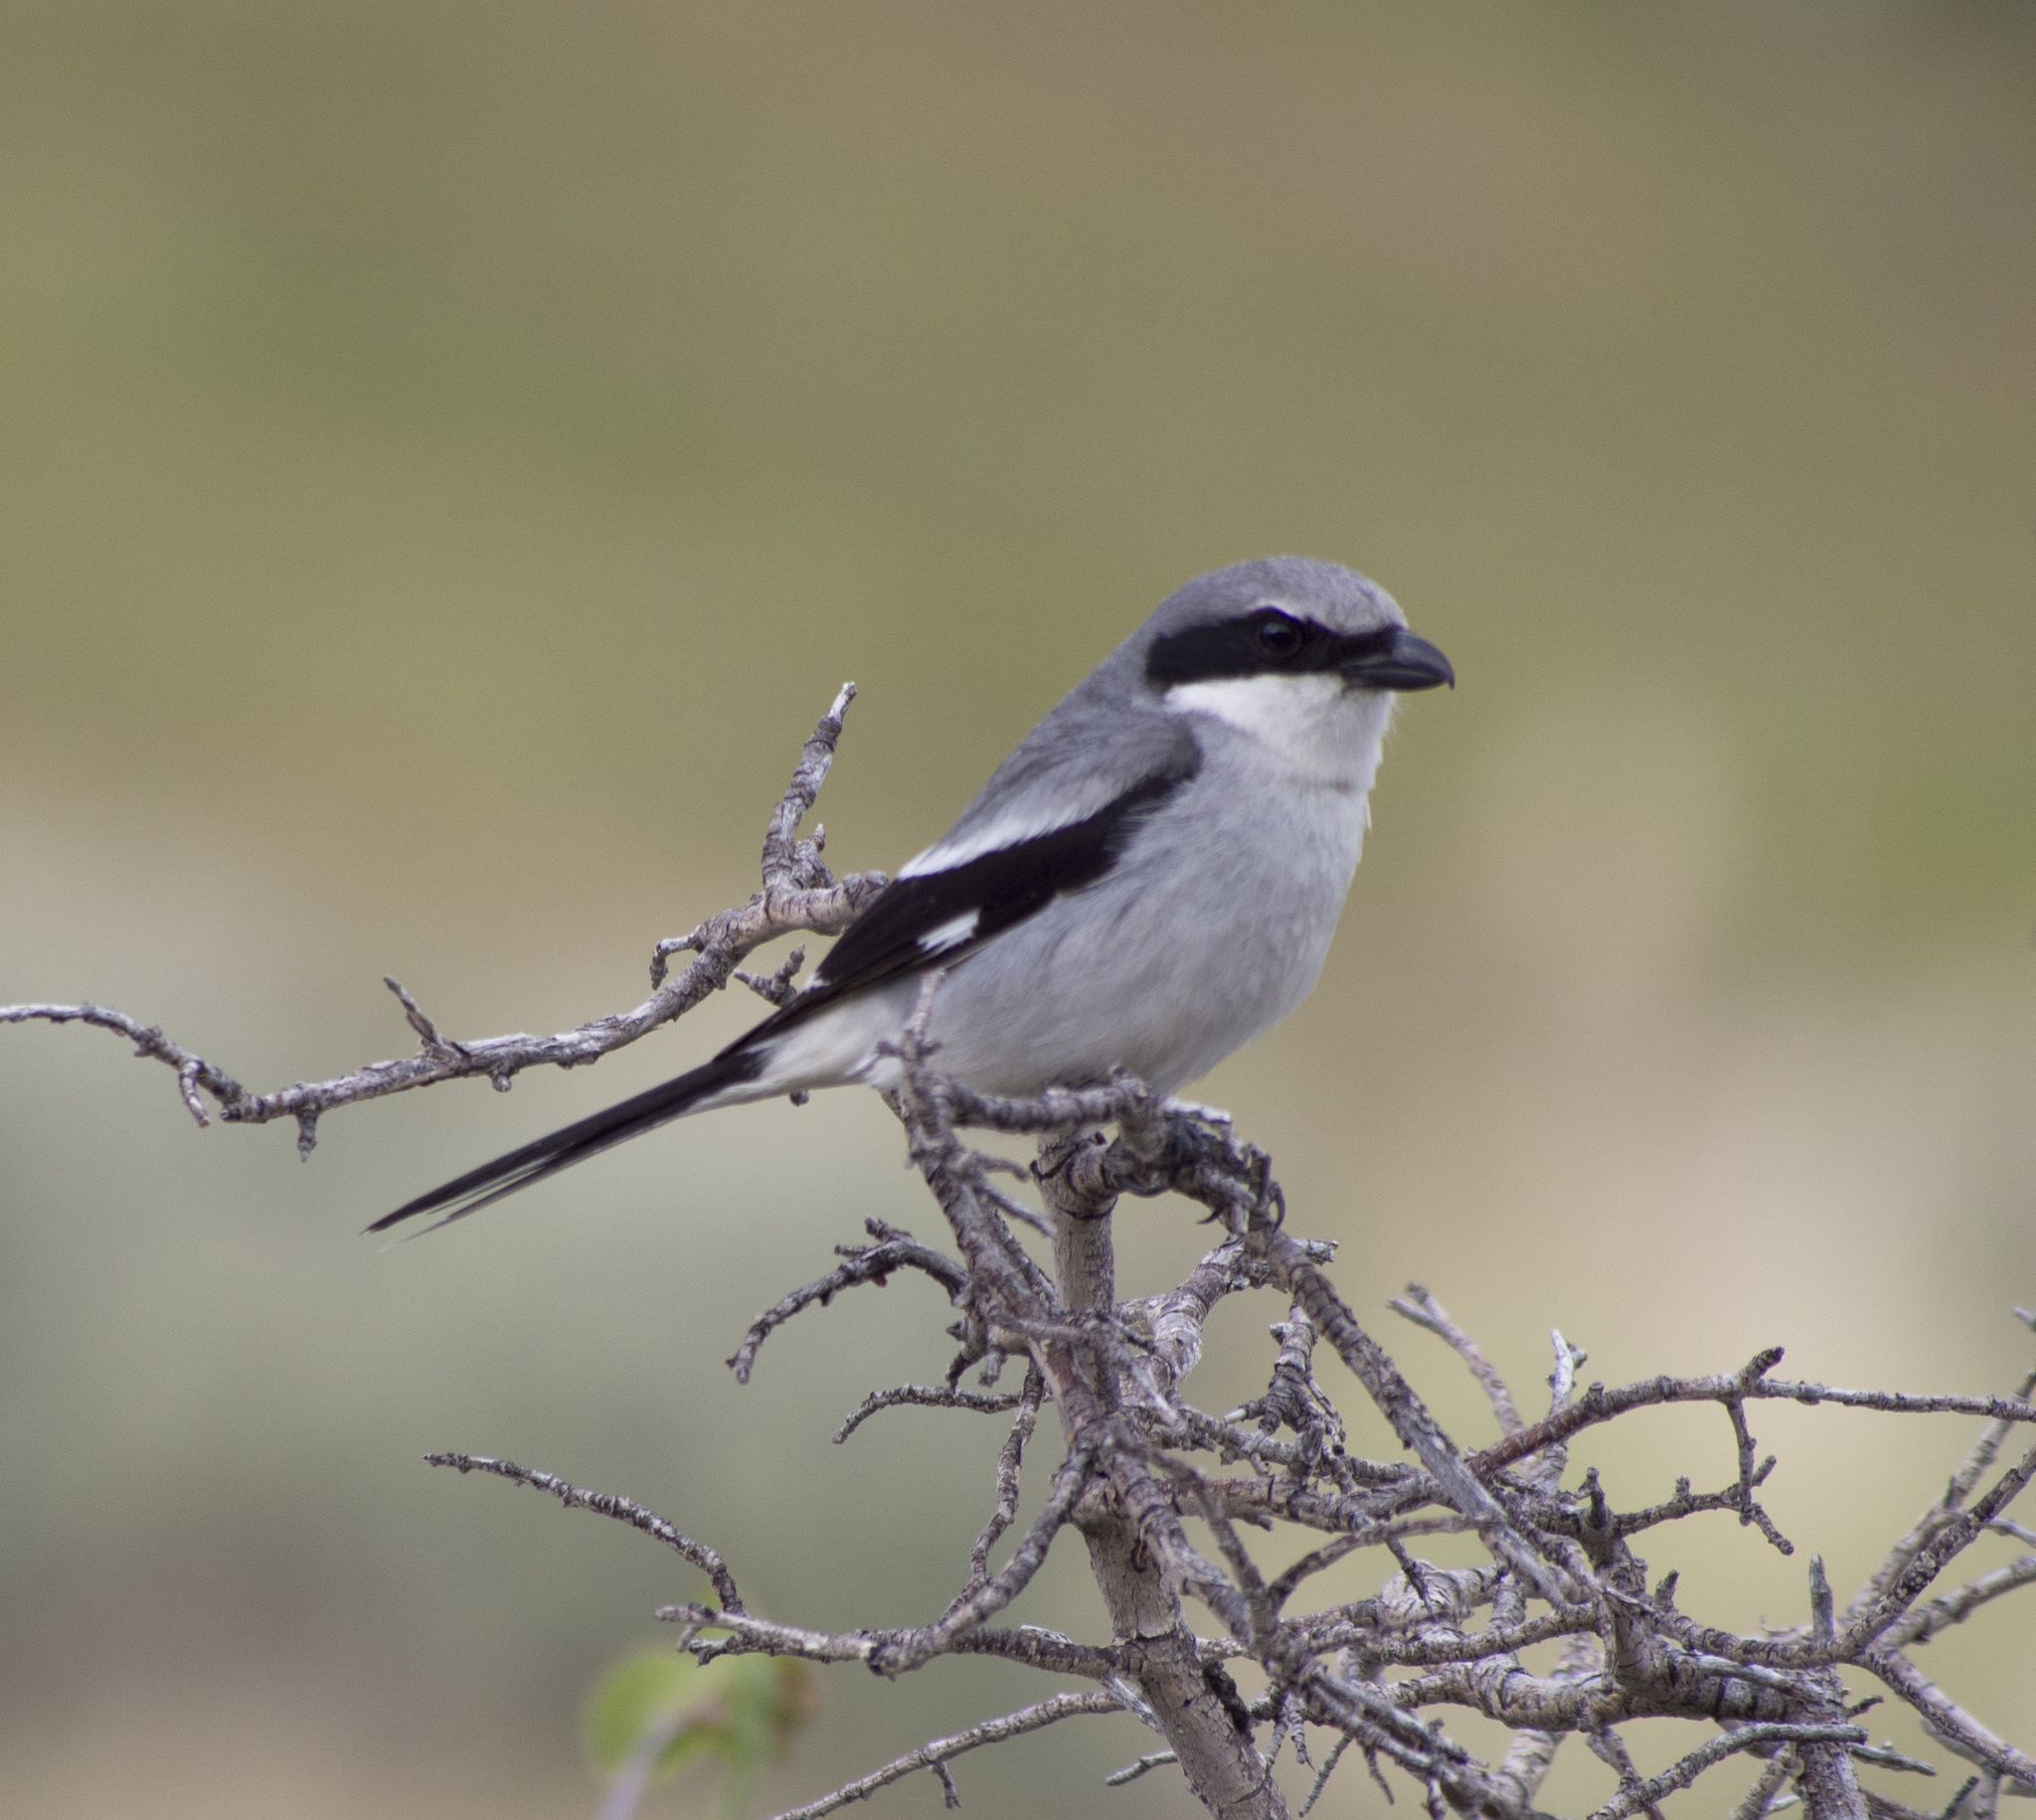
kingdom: Animalia
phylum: Chordata
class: Aves
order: Passeriformes
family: Laniidae
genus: Lanius
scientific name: Lanius ludovicianus
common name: Loggerhead shrike
